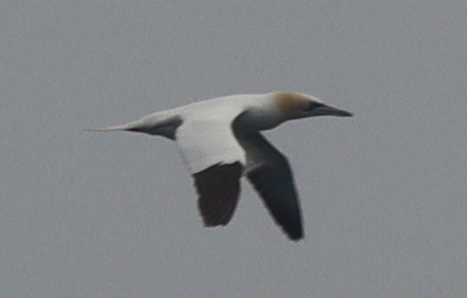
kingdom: Animalia
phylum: Chordata
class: Aves
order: Suliformes
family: Sulidae
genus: Morus
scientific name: Morus bassanus
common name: Northern gannet
